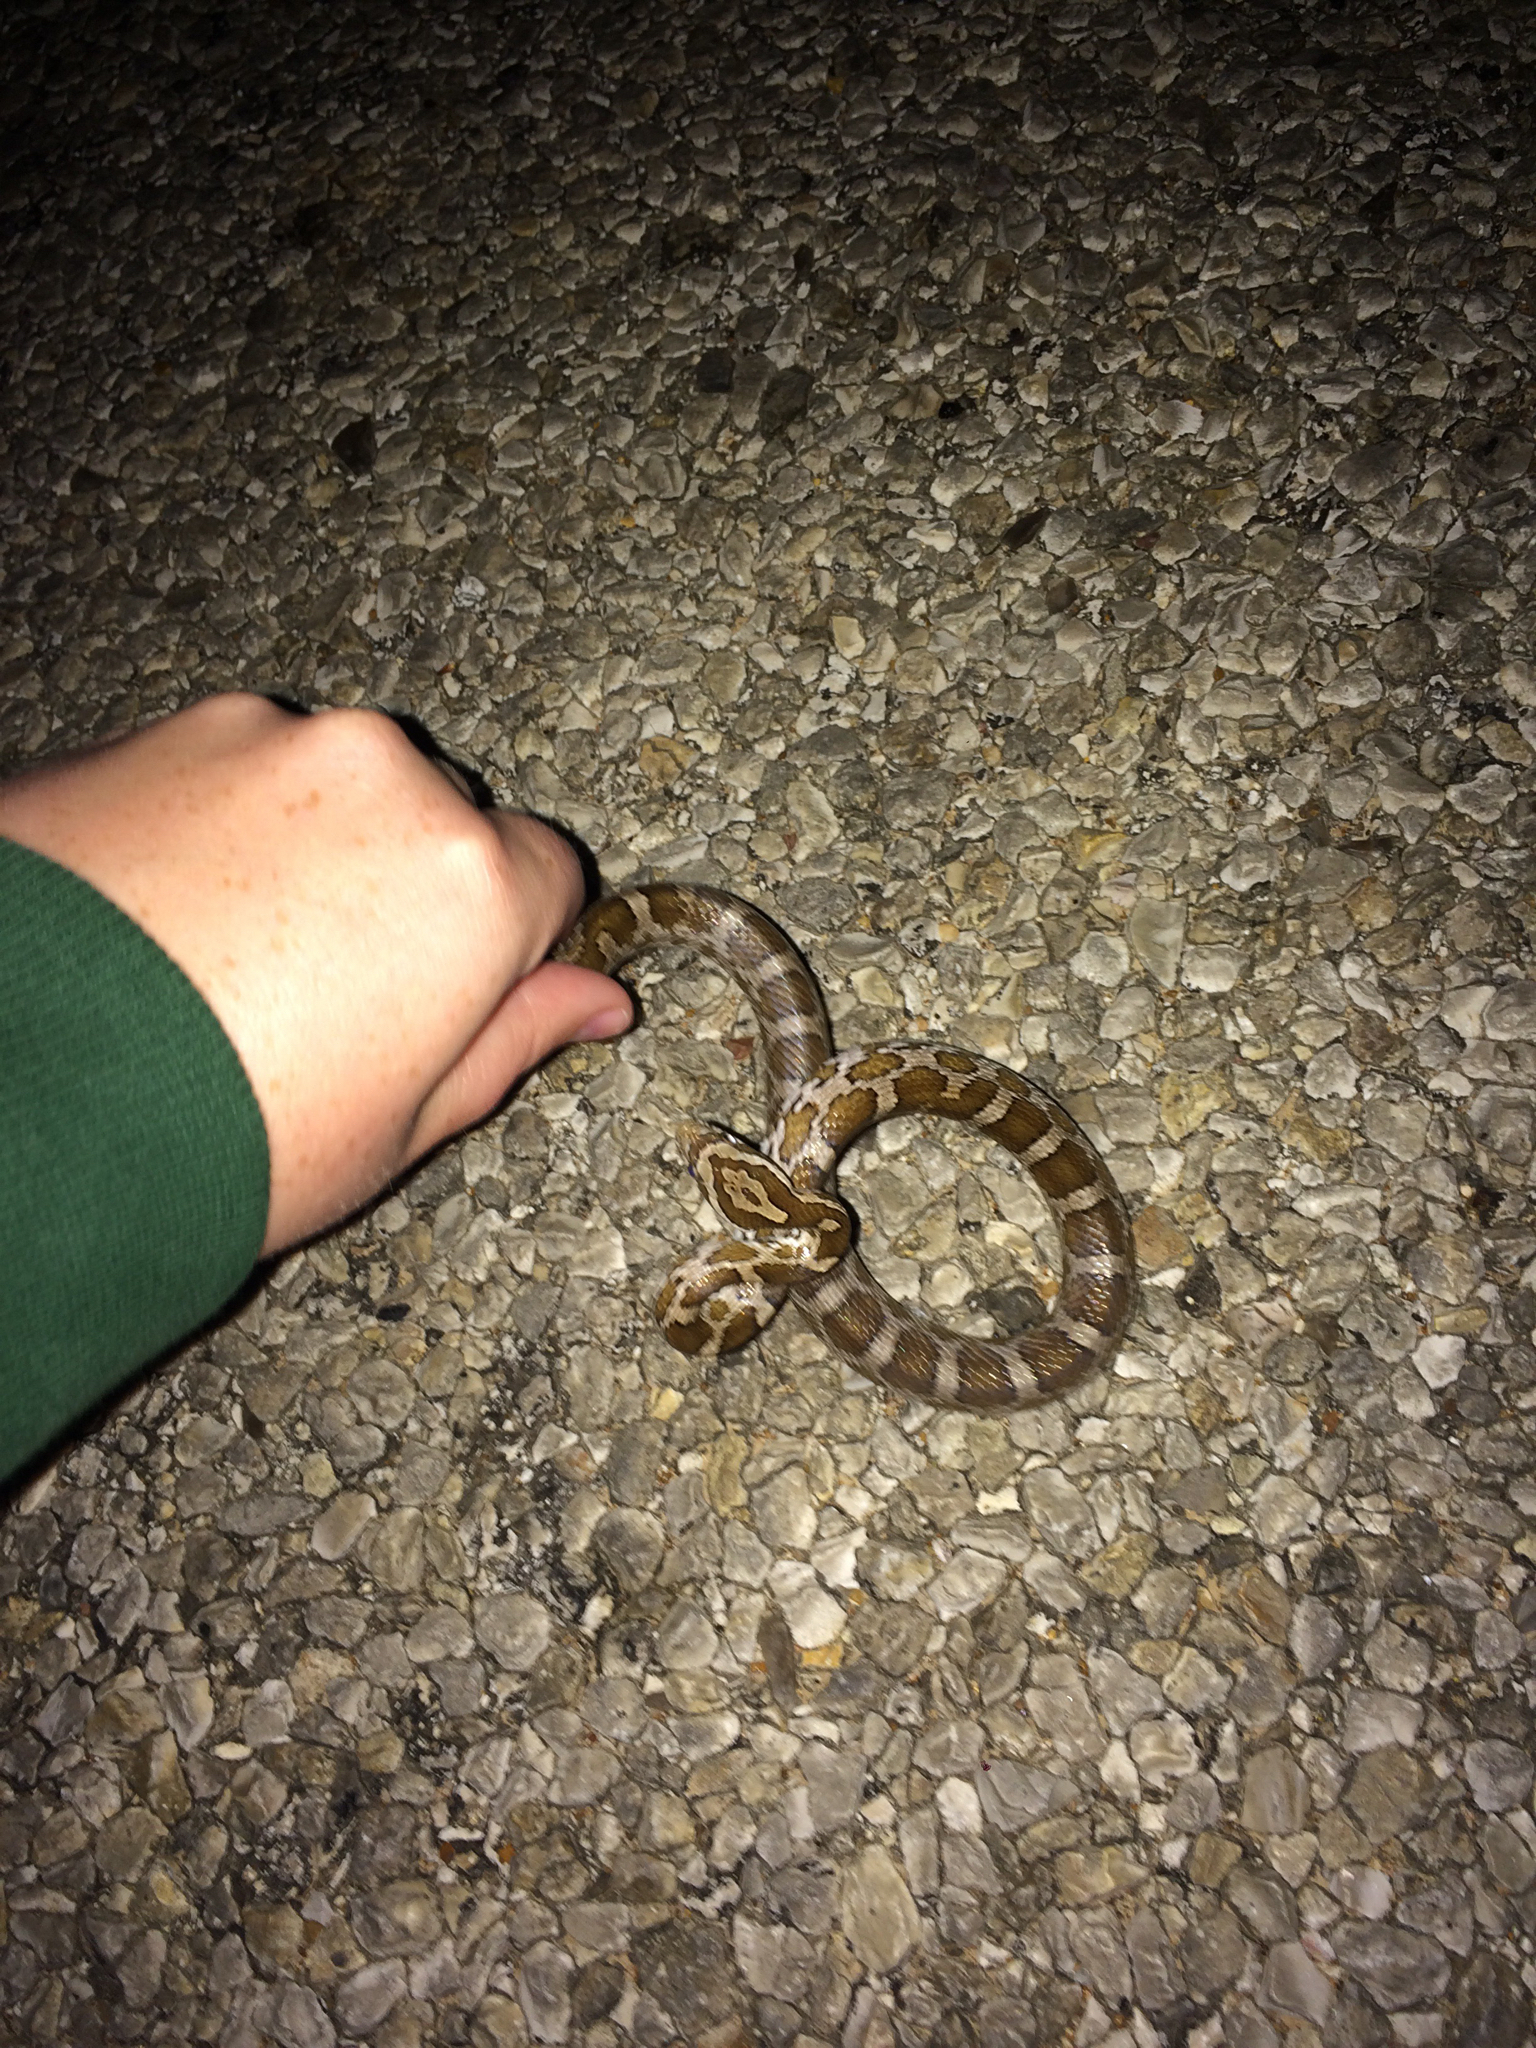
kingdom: Animalia
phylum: Chordata
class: Squamata
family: Colubridae
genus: Pantherophis
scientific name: Pantherophis emoryi
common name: Great plains rat snake
